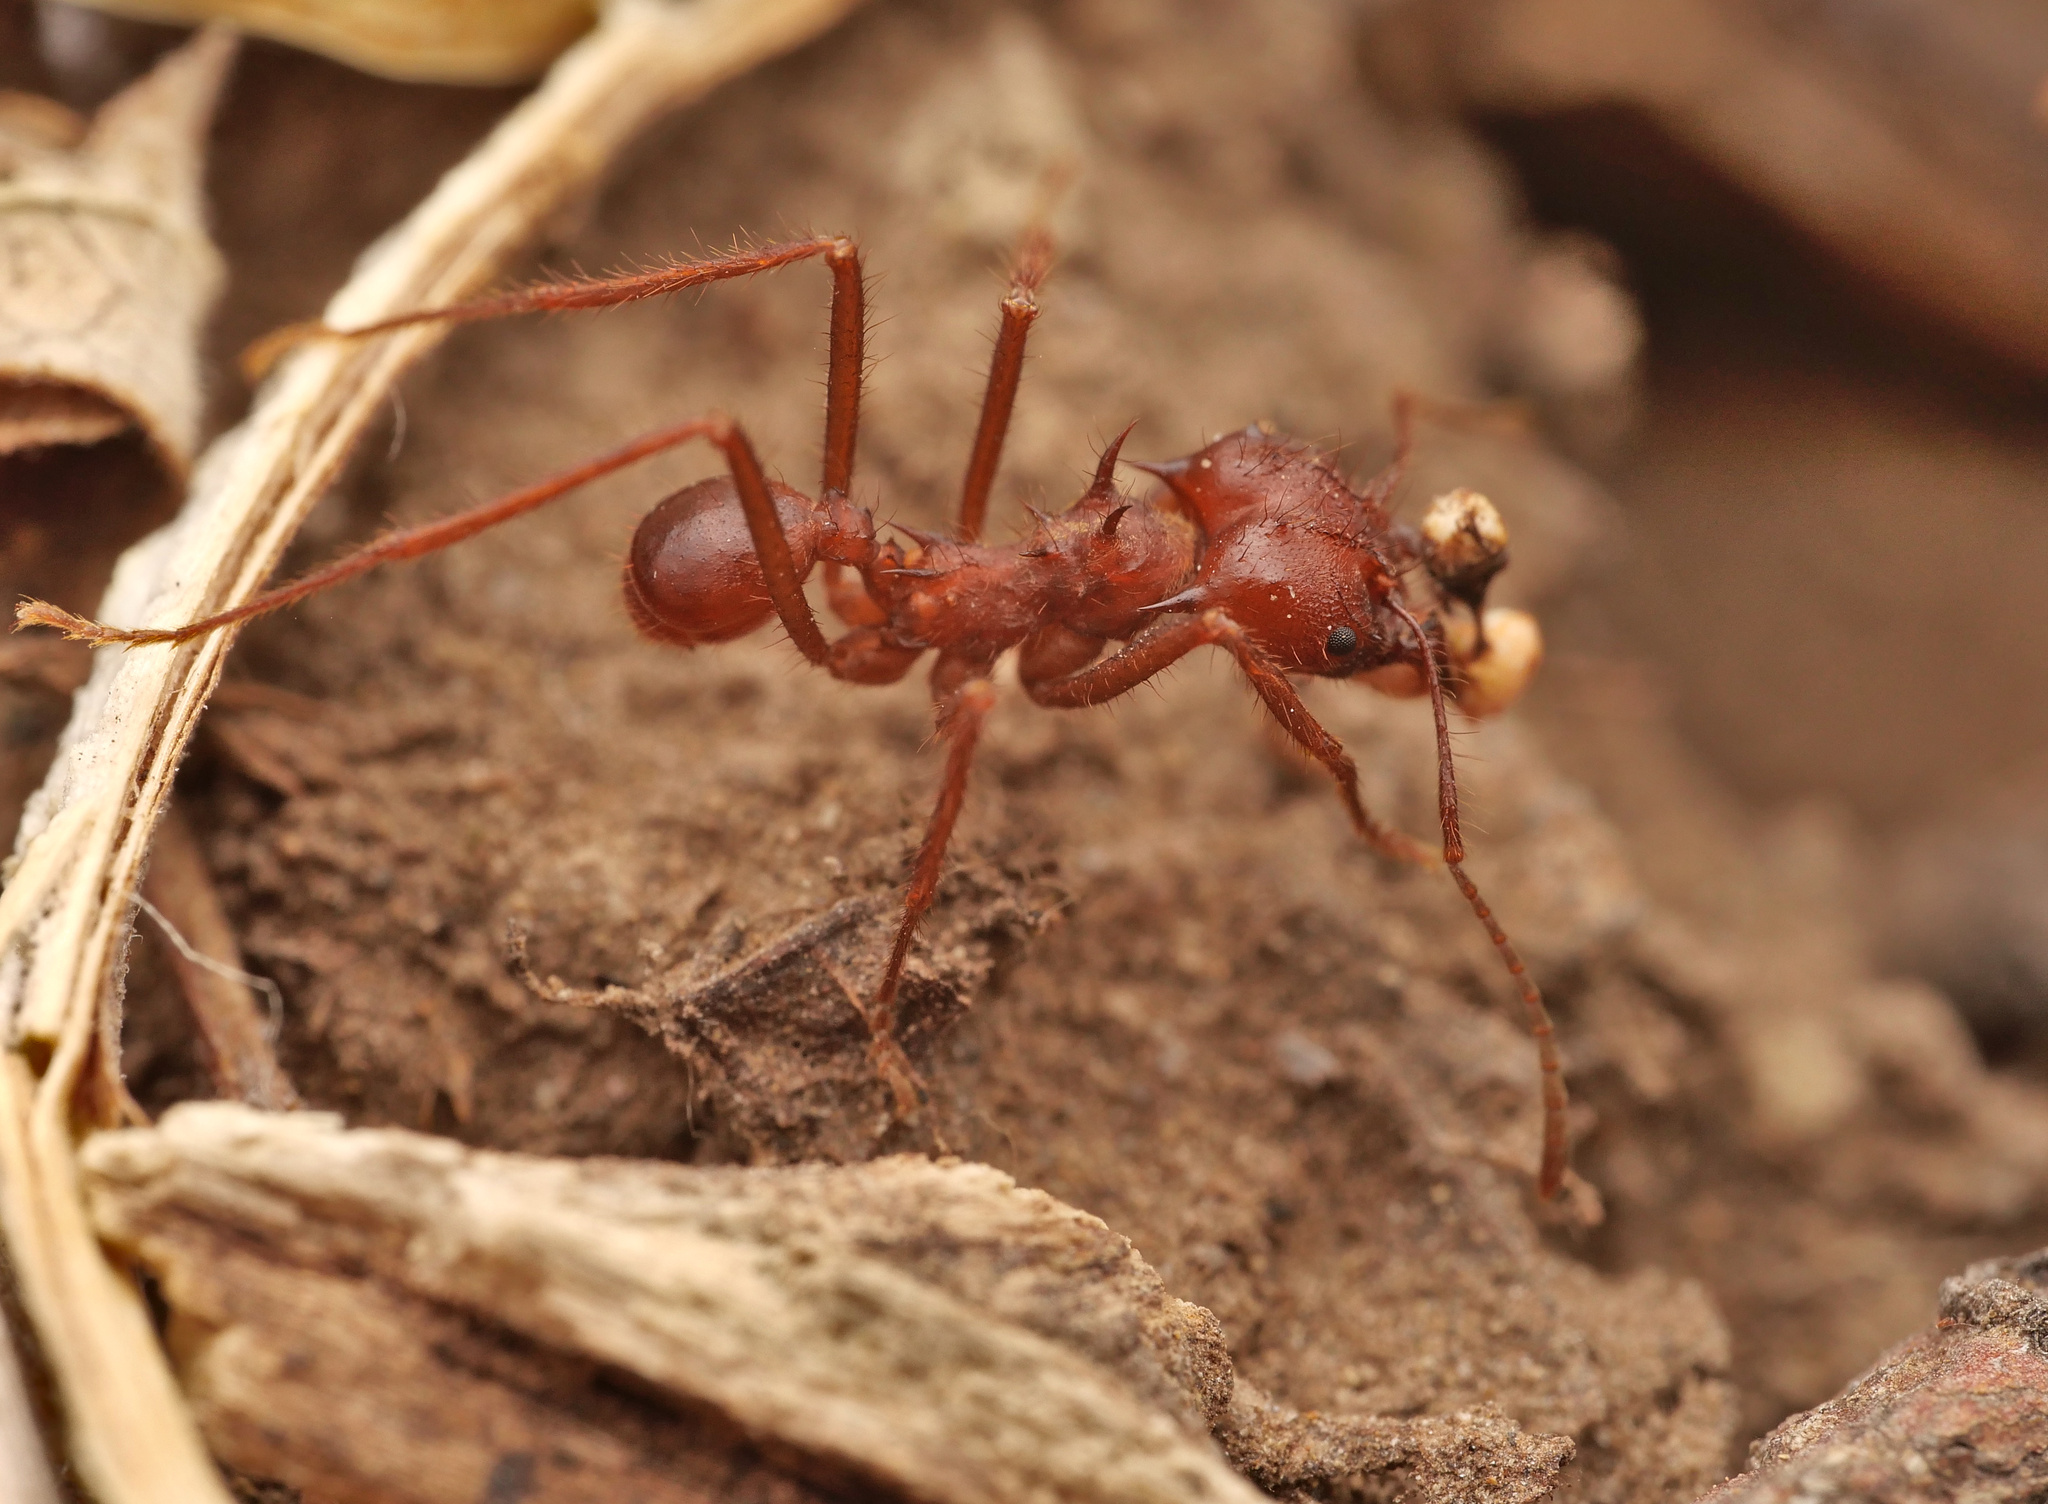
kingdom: Animalia
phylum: Arthropoda
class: Insecta
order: Hymenoptera
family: Formicidae
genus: Atta
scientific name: Atta mexicana
